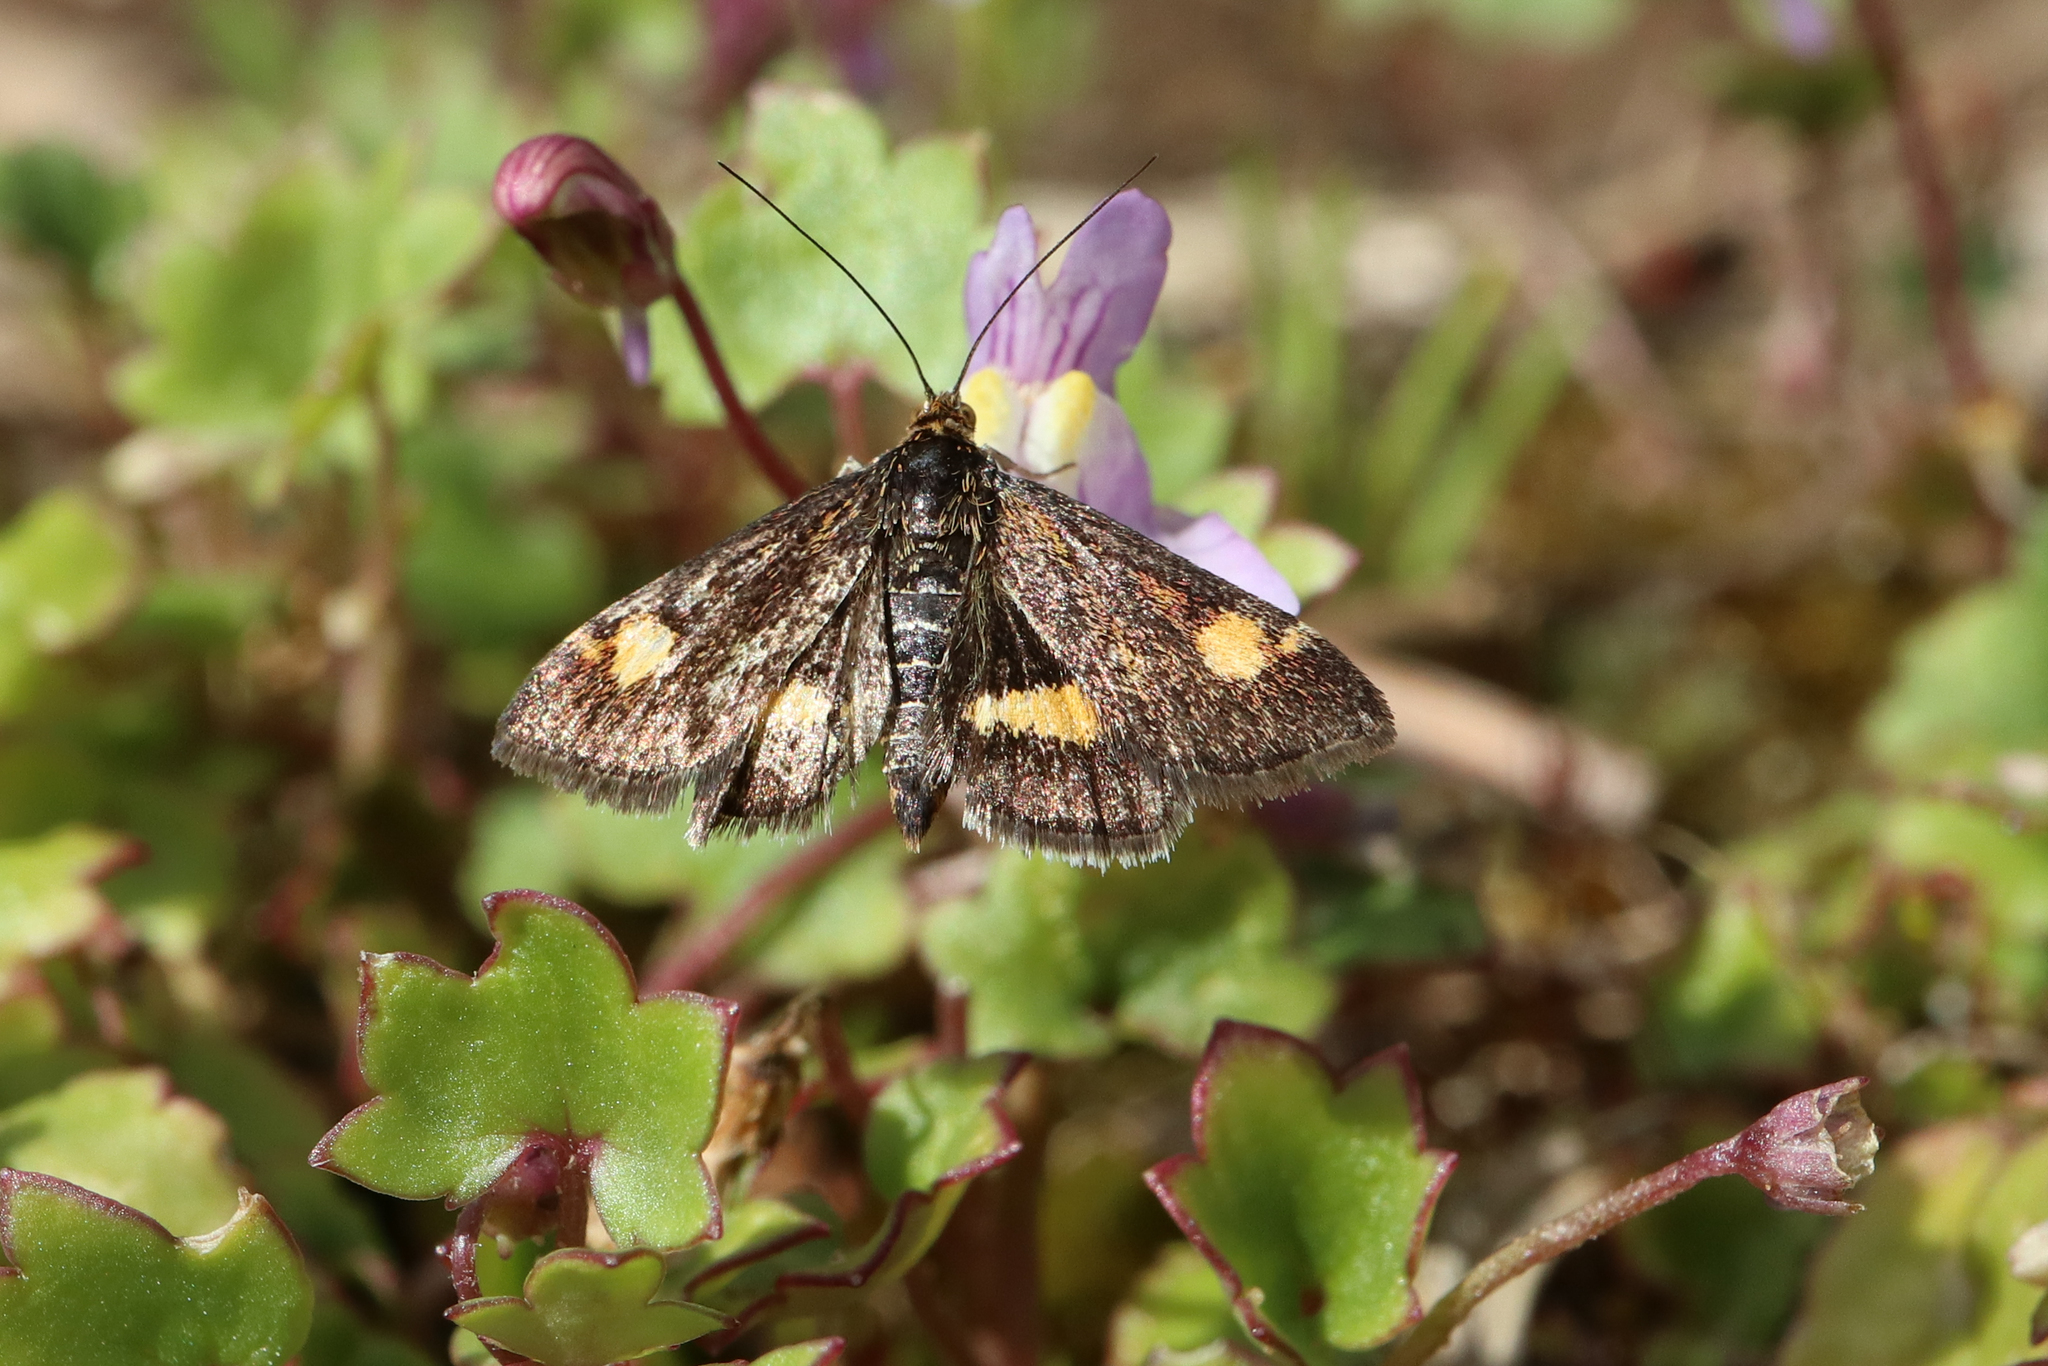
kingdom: Animalia
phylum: Arthropoda
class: Insecta
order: Lepidoptera
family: Crambidae
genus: Pyrausta
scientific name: Pyrausta aurata
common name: Small purple & gold
